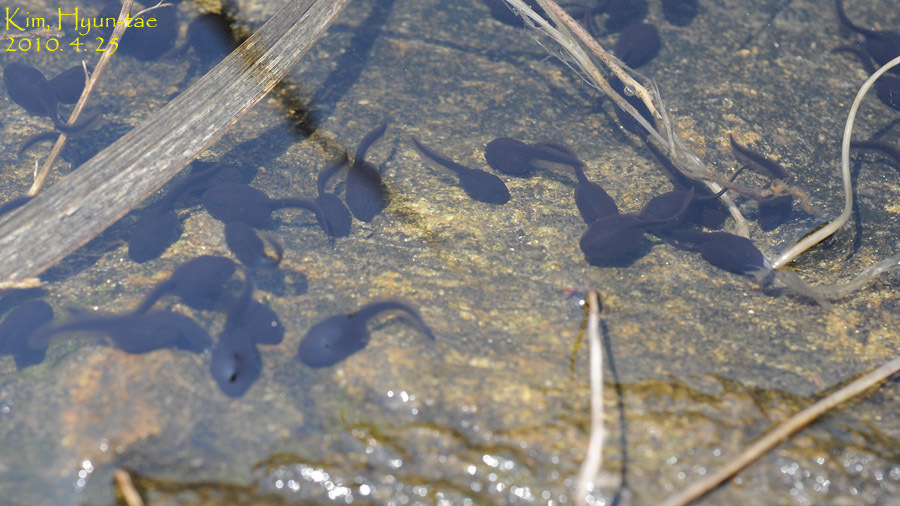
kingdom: Animalia
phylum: Chordata
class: Amphibia
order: Anura
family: Bufonidae
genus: Bufo
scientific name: Bufo gargarizans
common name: Asiatic toad
